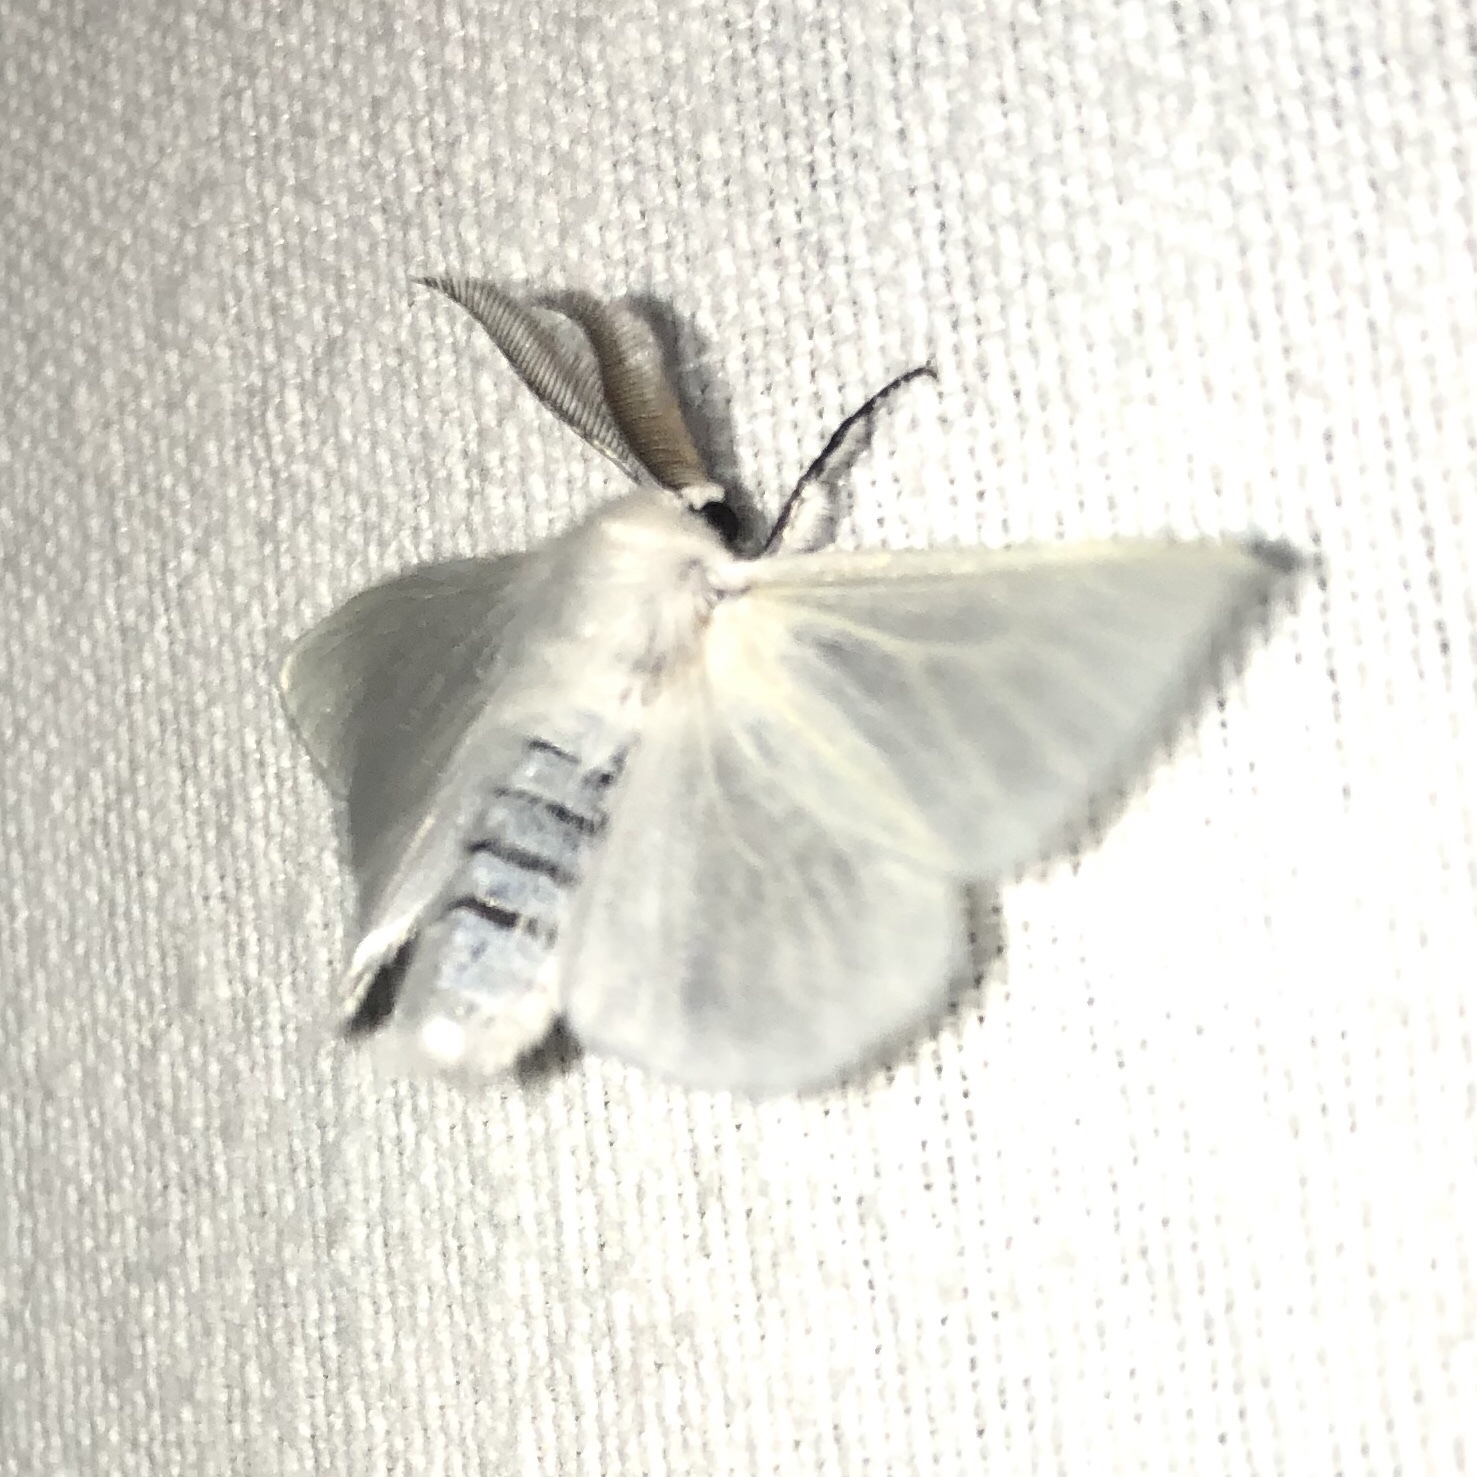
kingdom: Animalia
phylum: Arthropoda
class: Insecta
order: Lepidoptera
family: Erebidae
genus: Leucoma
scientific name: Leucoma salicis
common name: White satin moth
